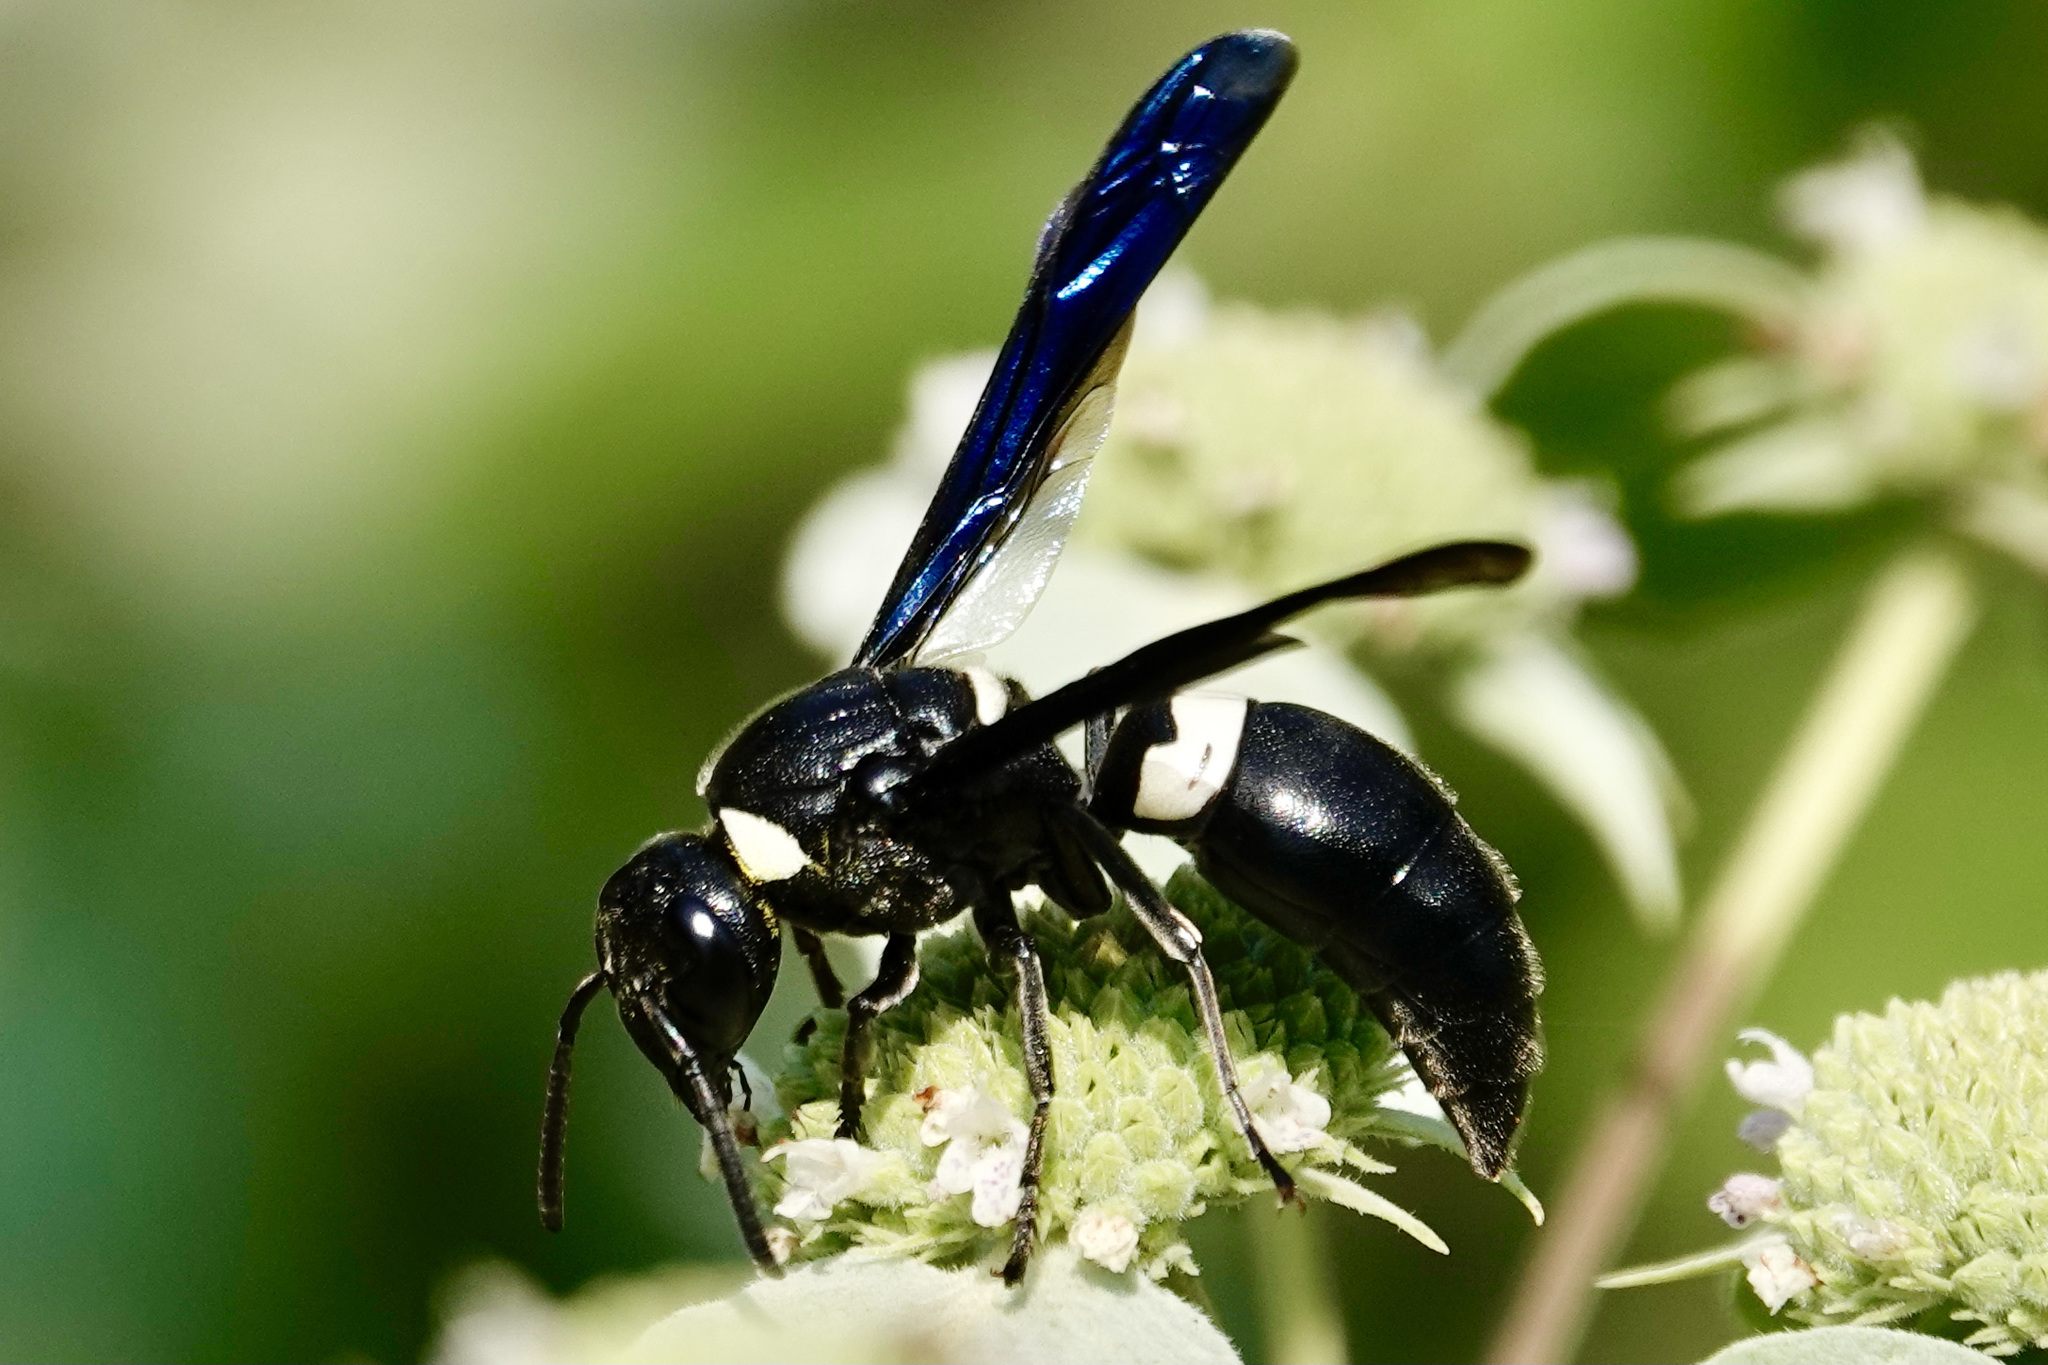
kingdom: Animalia
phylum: Arthropoda
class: Insecta
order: Hymenoptera
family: Eumenidae
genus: Monobia
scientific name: Monobia quadridens
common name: Four-toothed mason wasp
